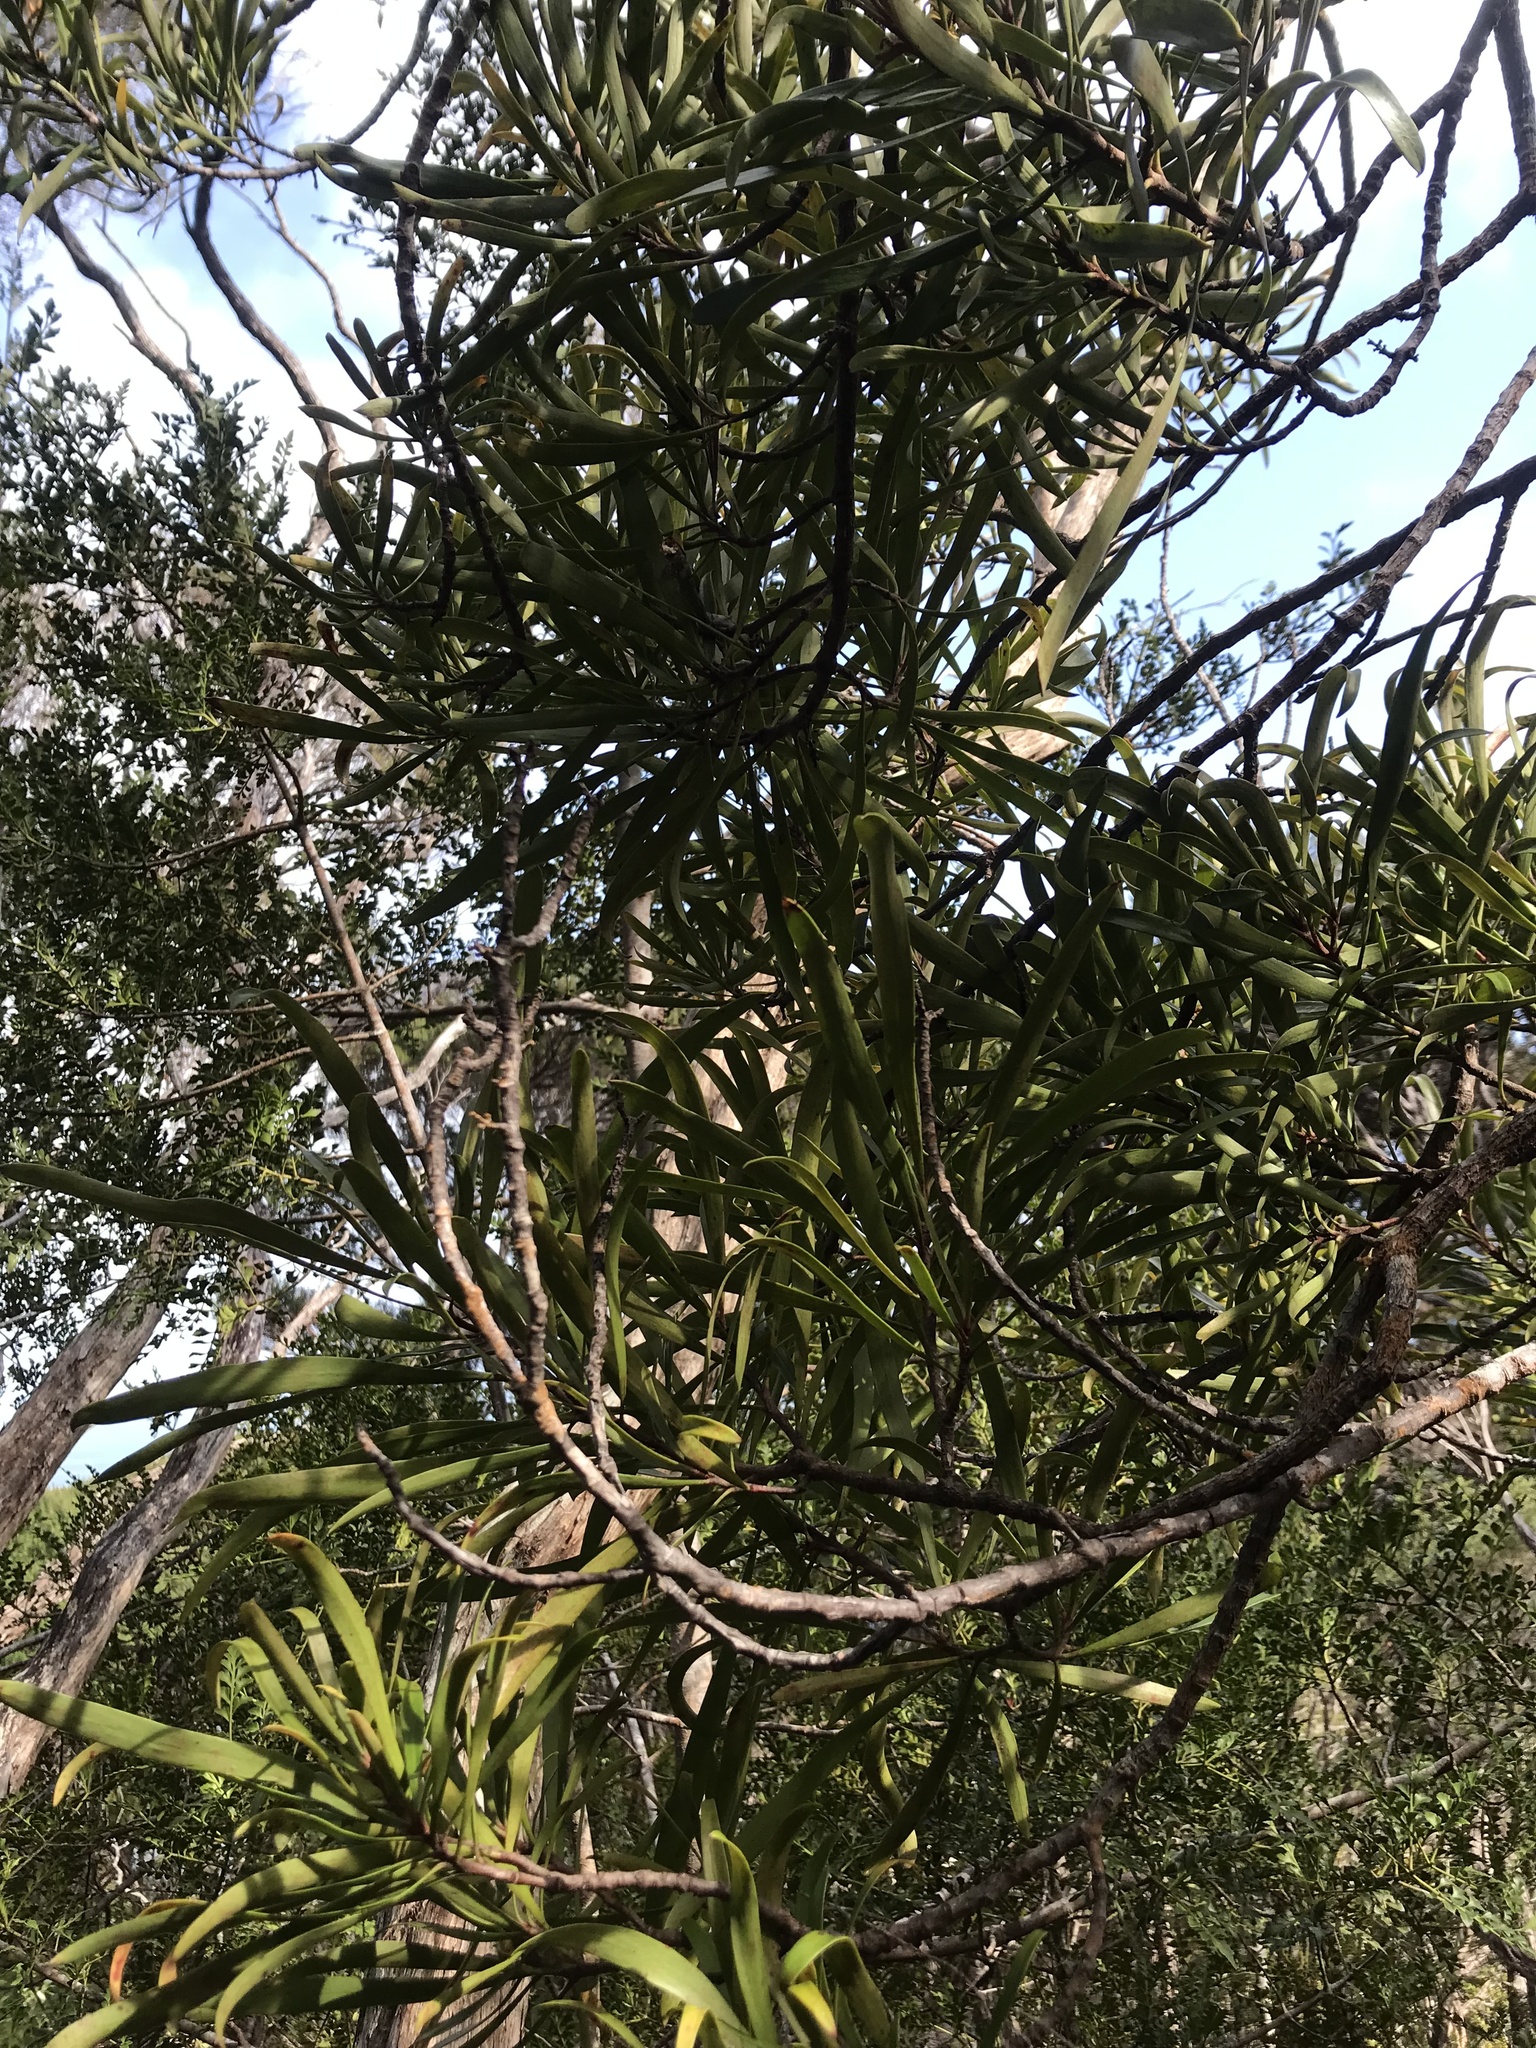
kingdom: Plantae
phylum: Tracheophyta
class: Magnoliopsida
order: Proteales
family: Proteaceae
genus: Toronia
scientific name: Toronia toru
